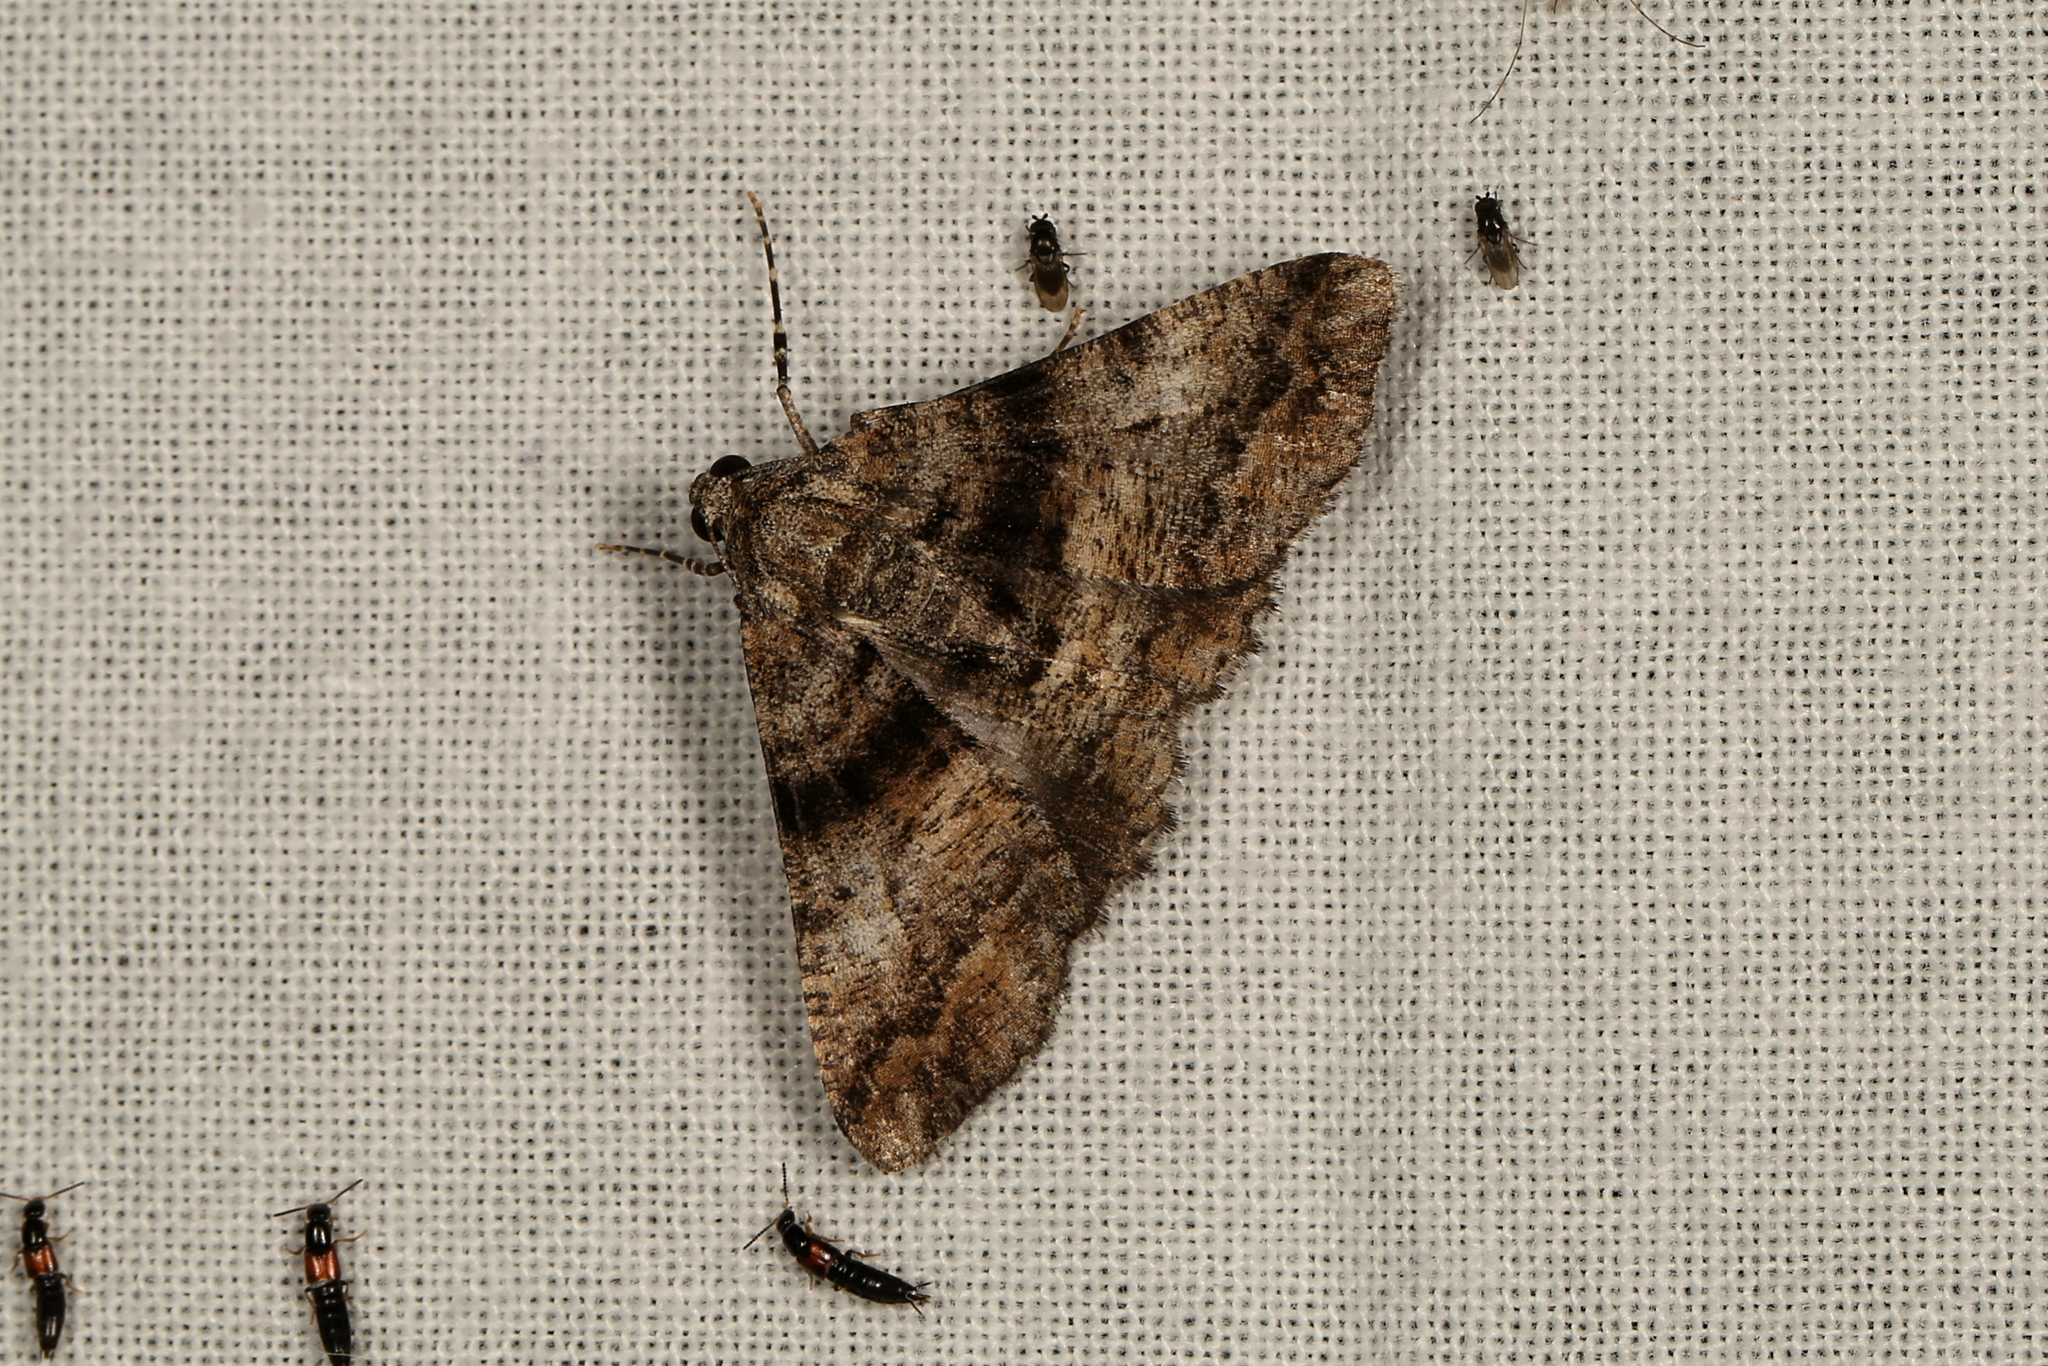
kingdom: Animalia
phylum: Arthropoda
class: Insecta
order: Lepidoptera
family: Geometridae
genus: Gastrinodes
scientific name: Gastrinodes argoplaca
